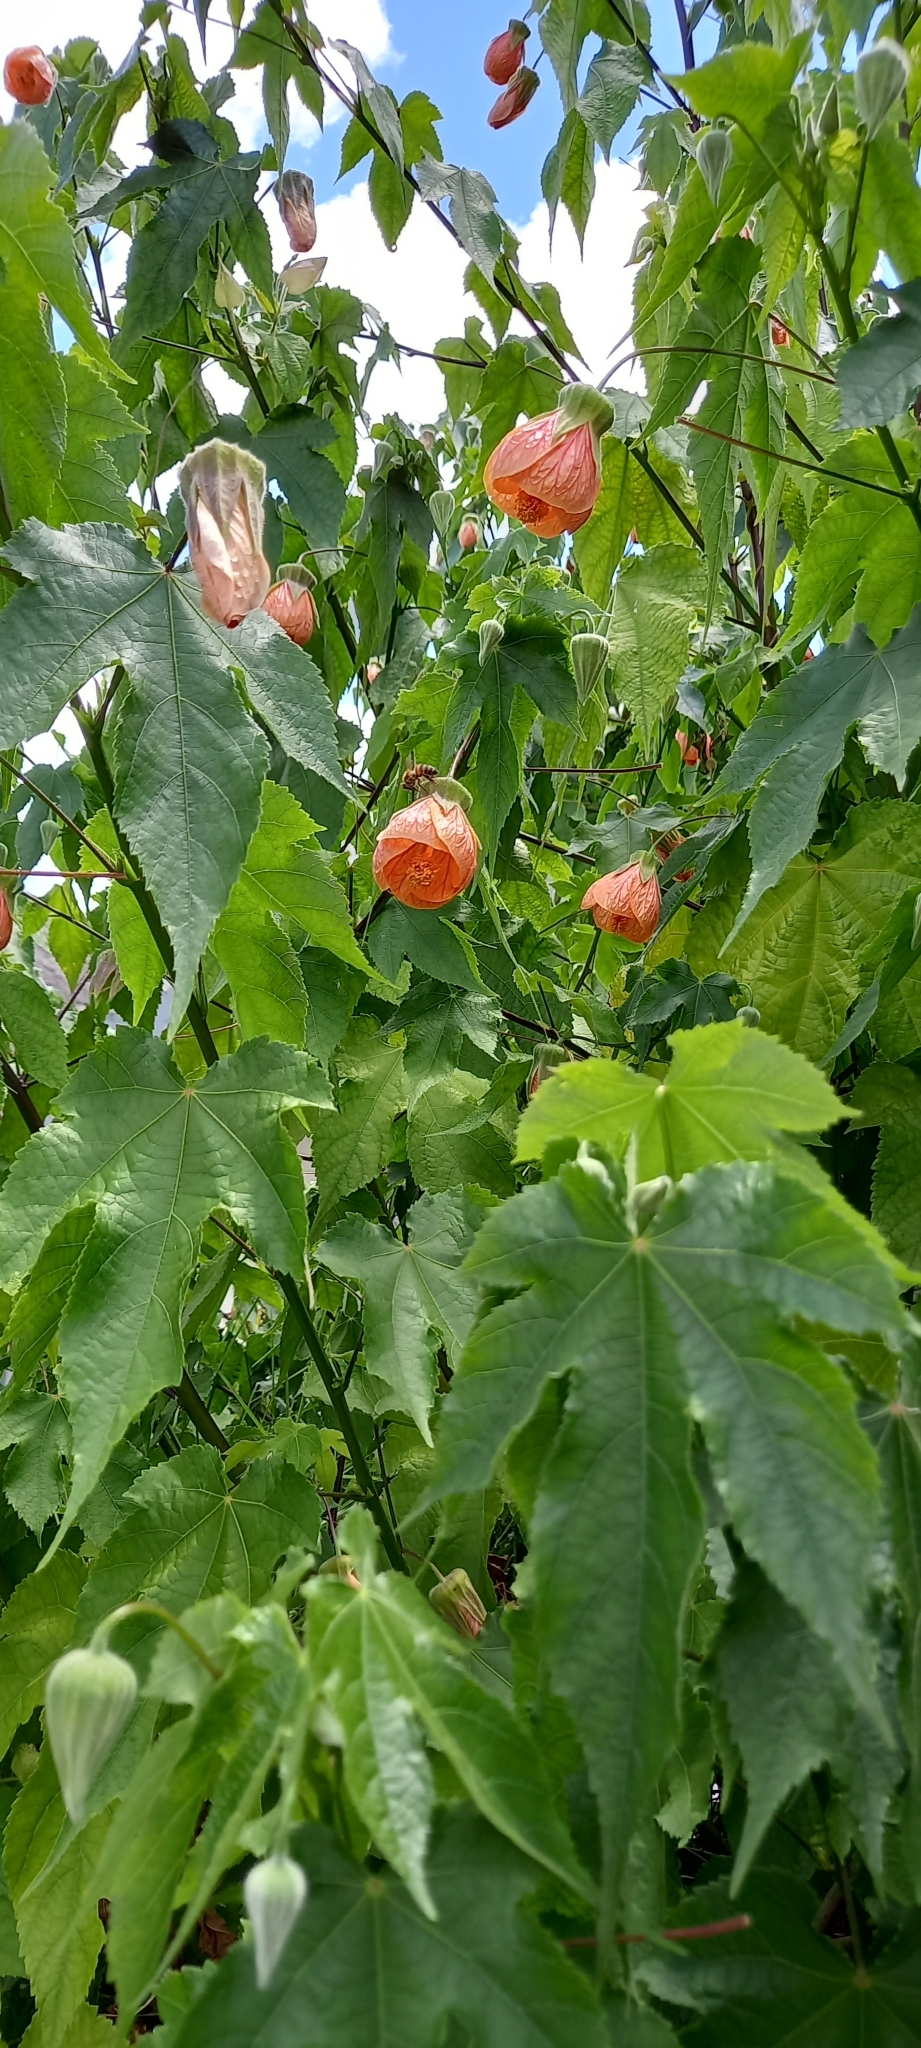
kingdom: Animalia
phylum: Arthropoda
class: Insecta
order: Hymenoptera
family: Apidae
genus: Apis
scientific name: Apis mellifera
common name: Honey bee
